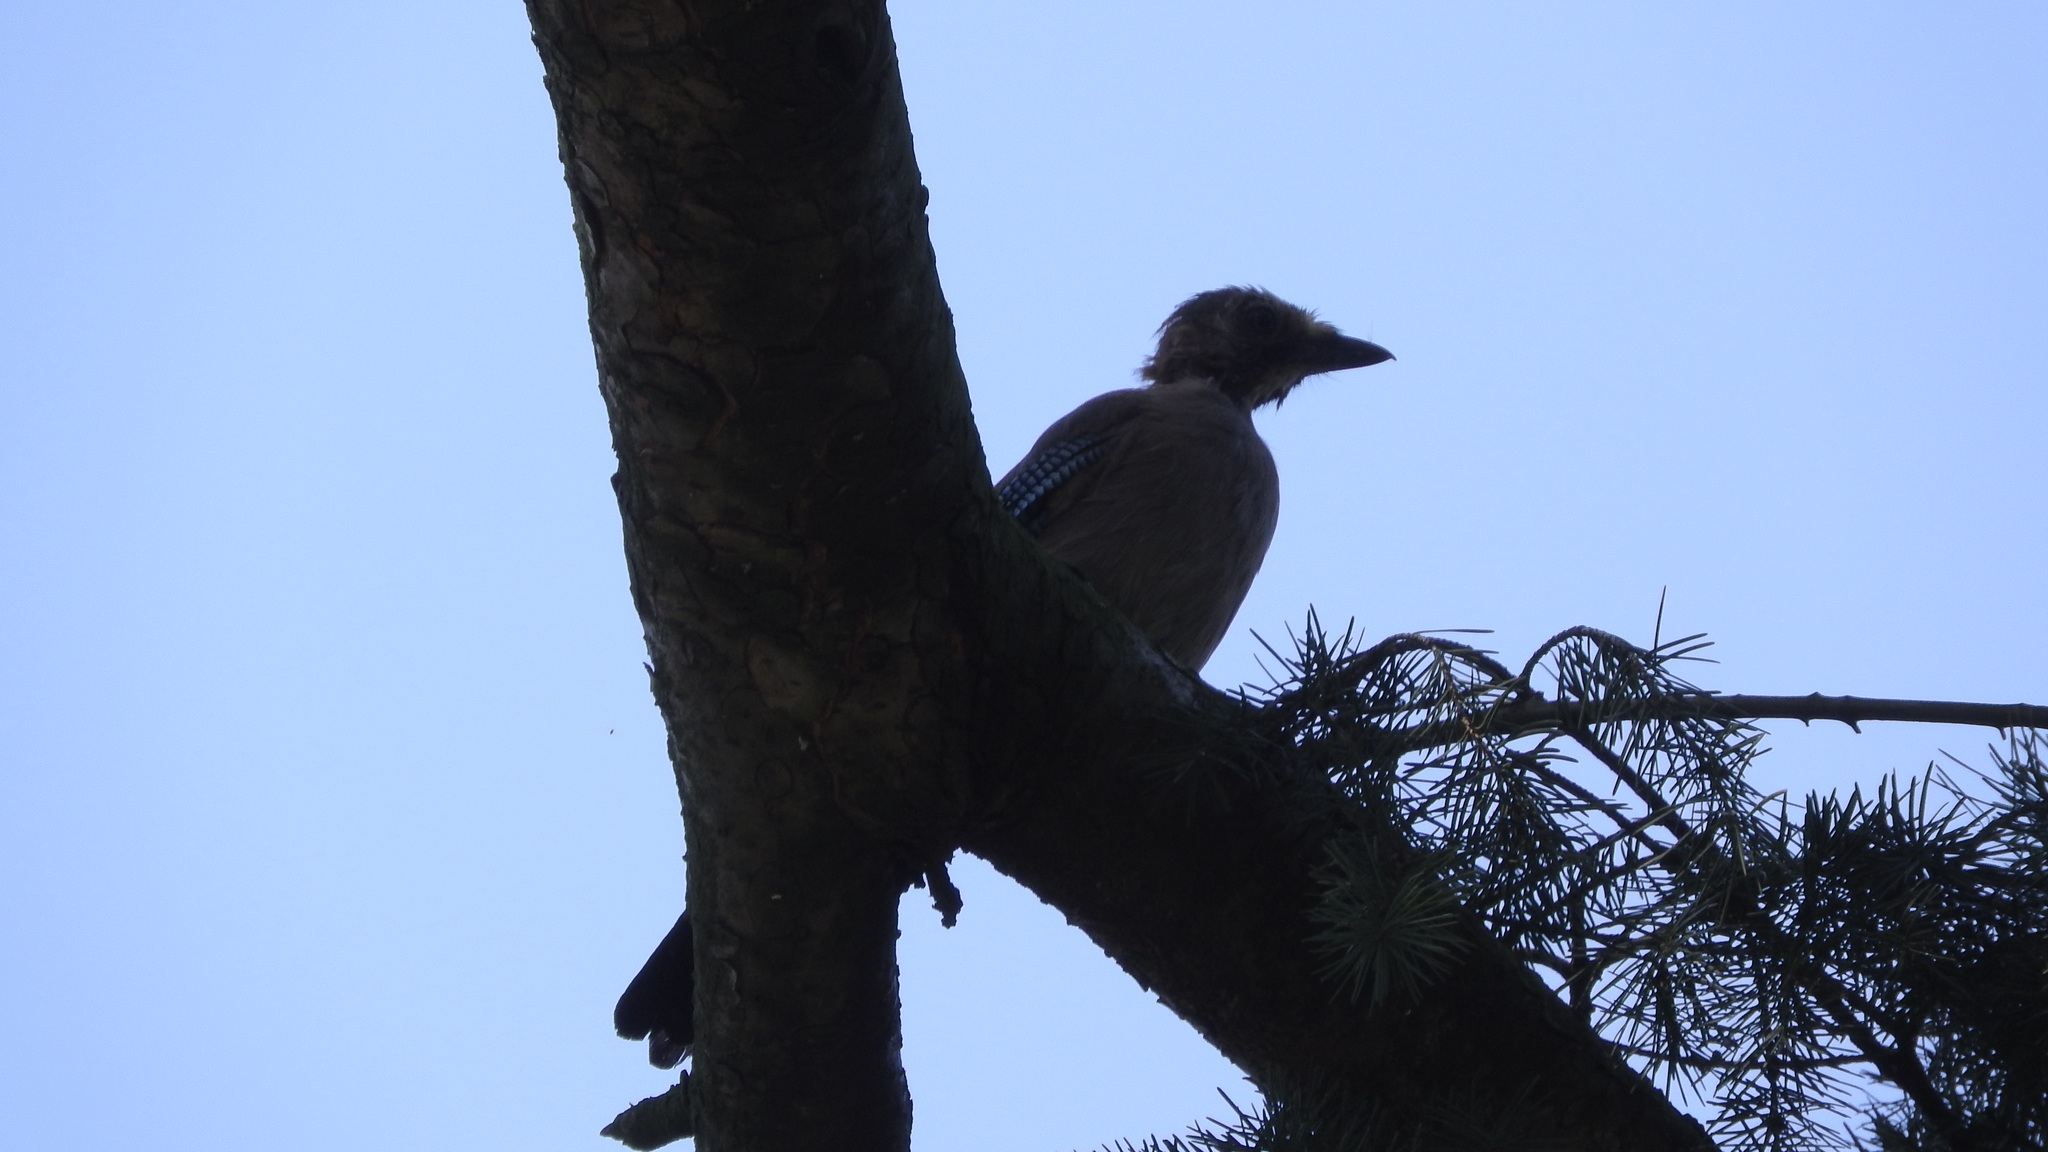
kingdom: Animalia
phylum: Chordata
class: Aves
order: Passeriformes
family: Corvidae
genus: Garrulus
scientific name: Garrulus glandarius
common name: Eurasian jay
